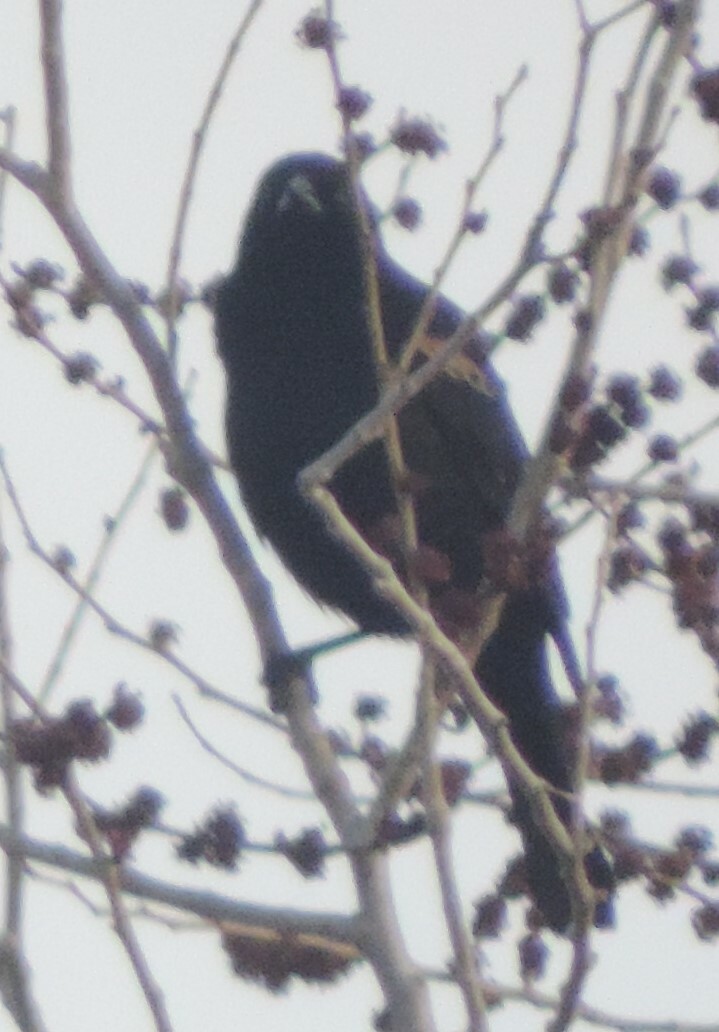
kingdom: Animalia
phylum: Chordata
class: Aves
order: Passeriformes
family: Icteridae
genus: Agelaius
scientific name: Agelaius phoeniceus
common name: Red-winged blackbird
